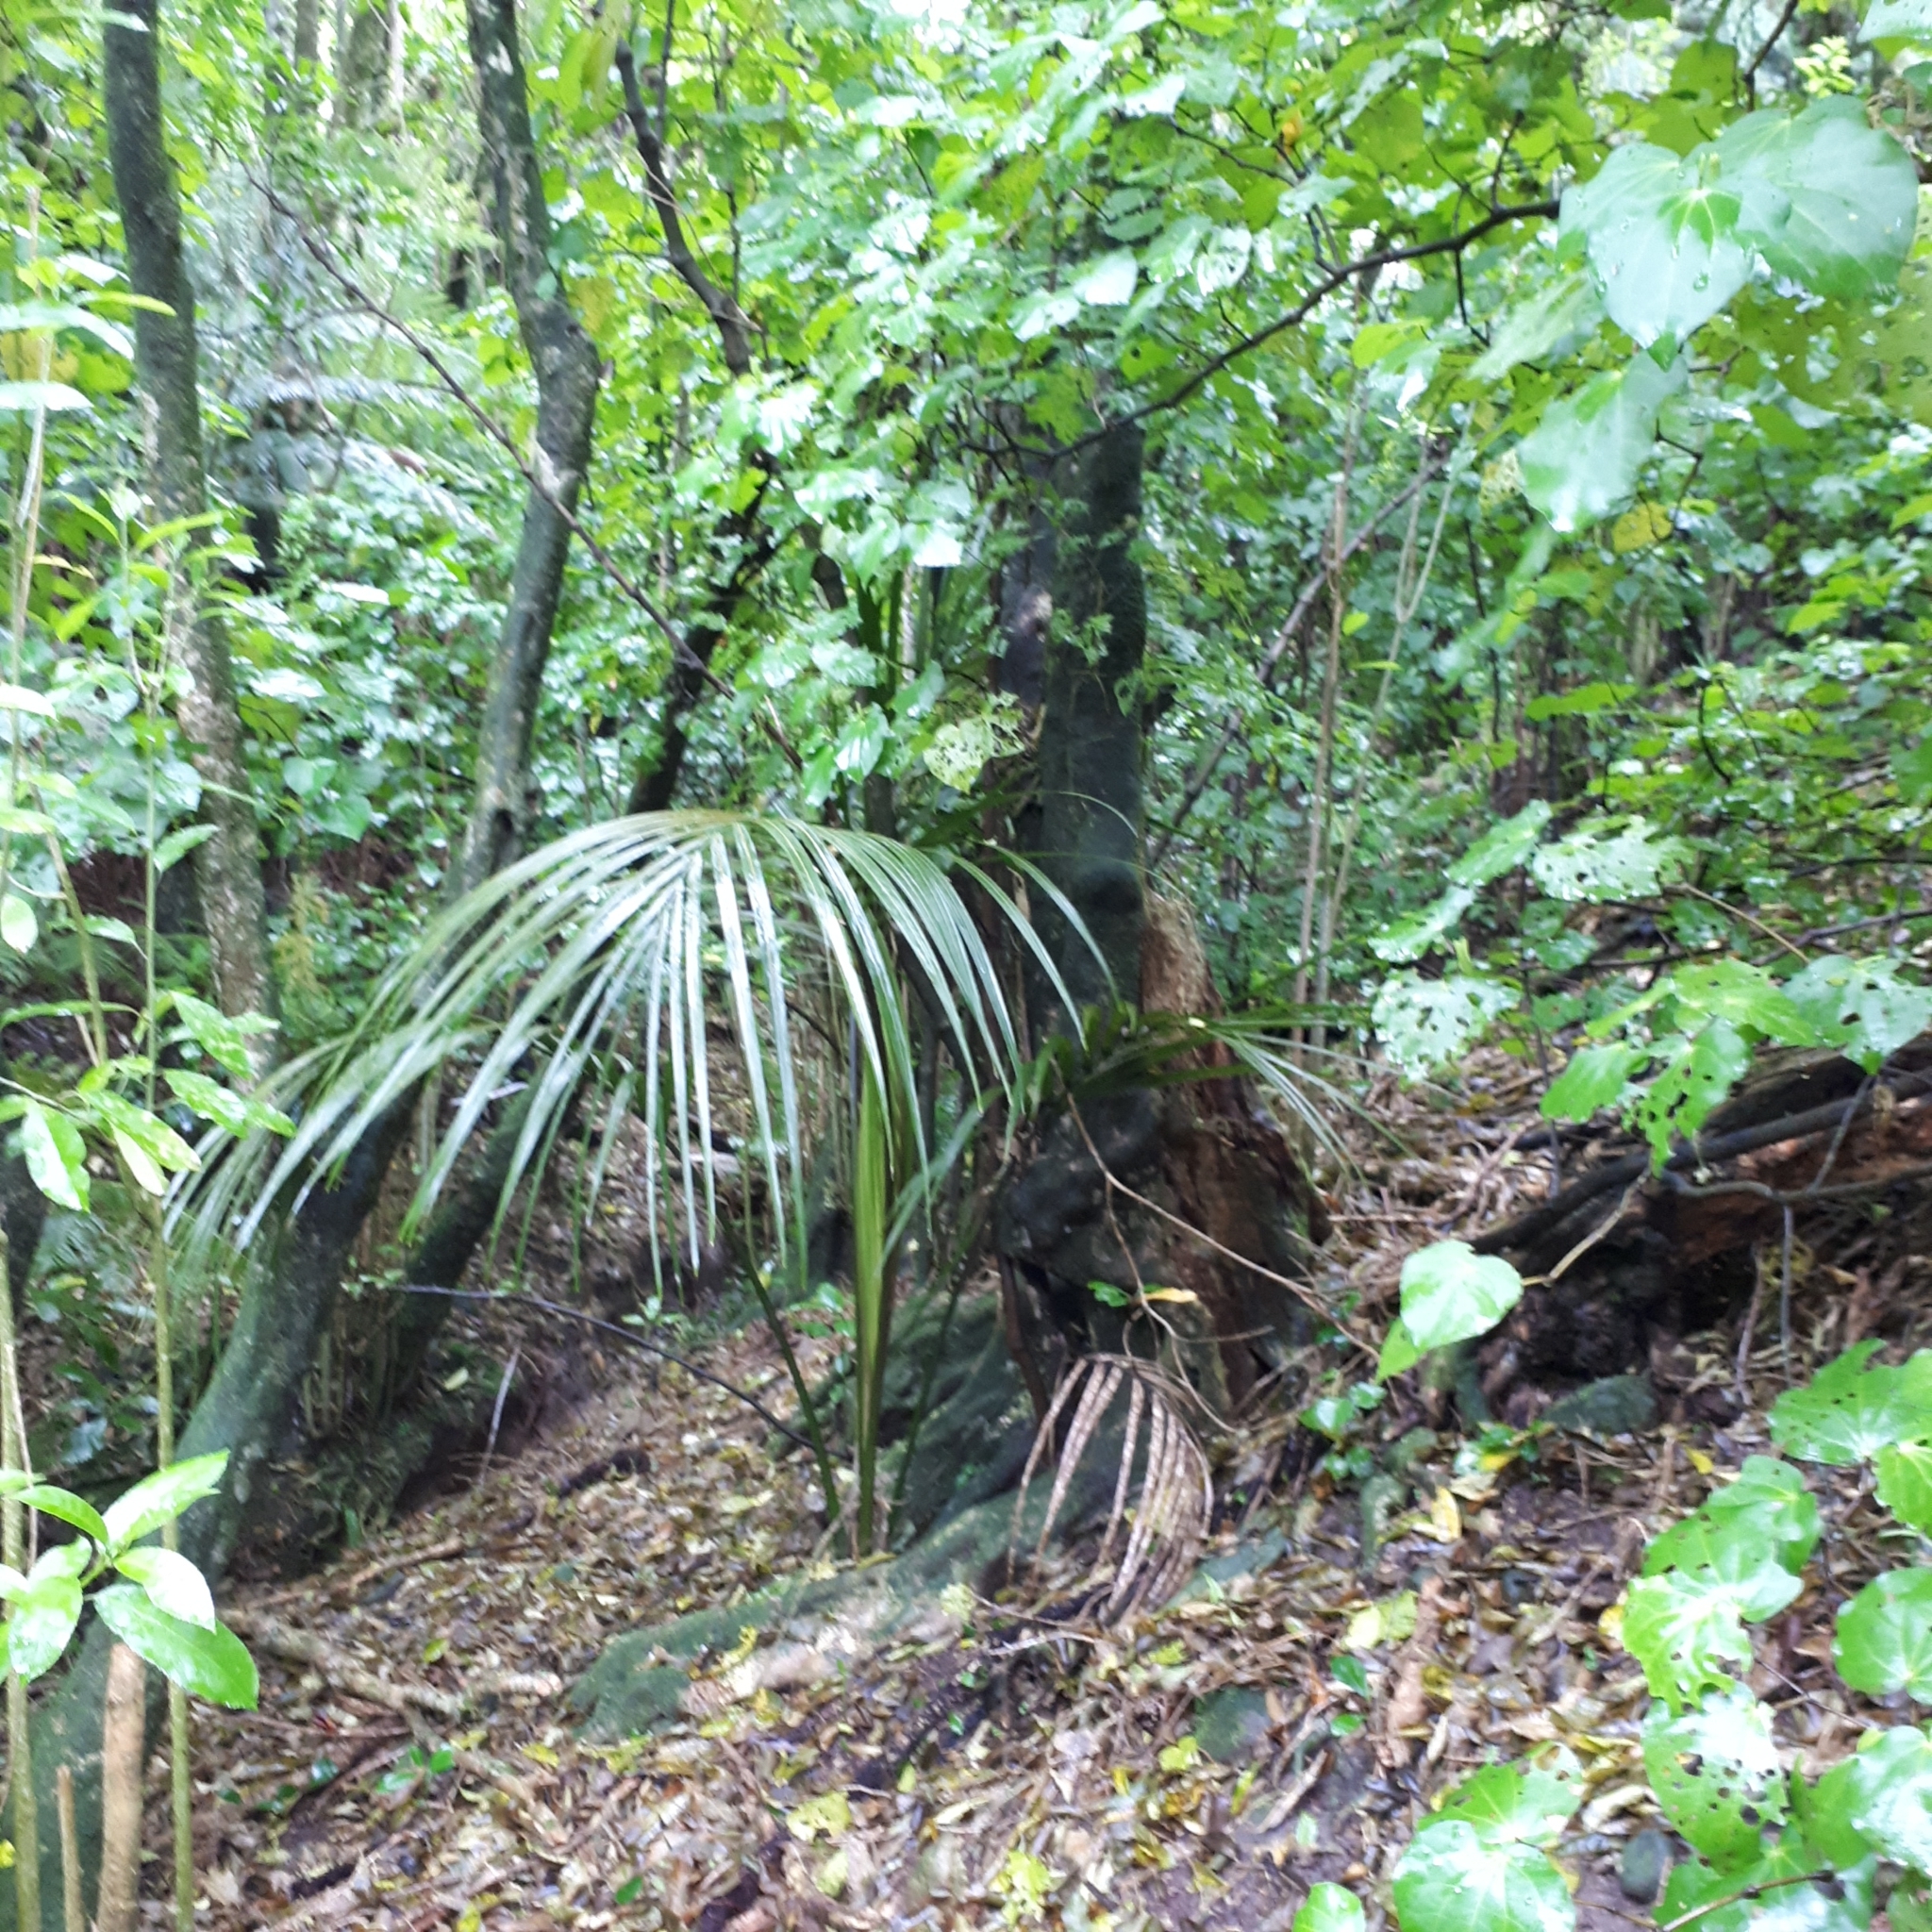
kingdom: Plantae
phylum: Tracheophyta
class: Liliopsida
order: Arecales
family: Arecaceae
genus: Rhopalostylis
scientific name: Rhopalostylis sapida
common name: Feather-duster palm
